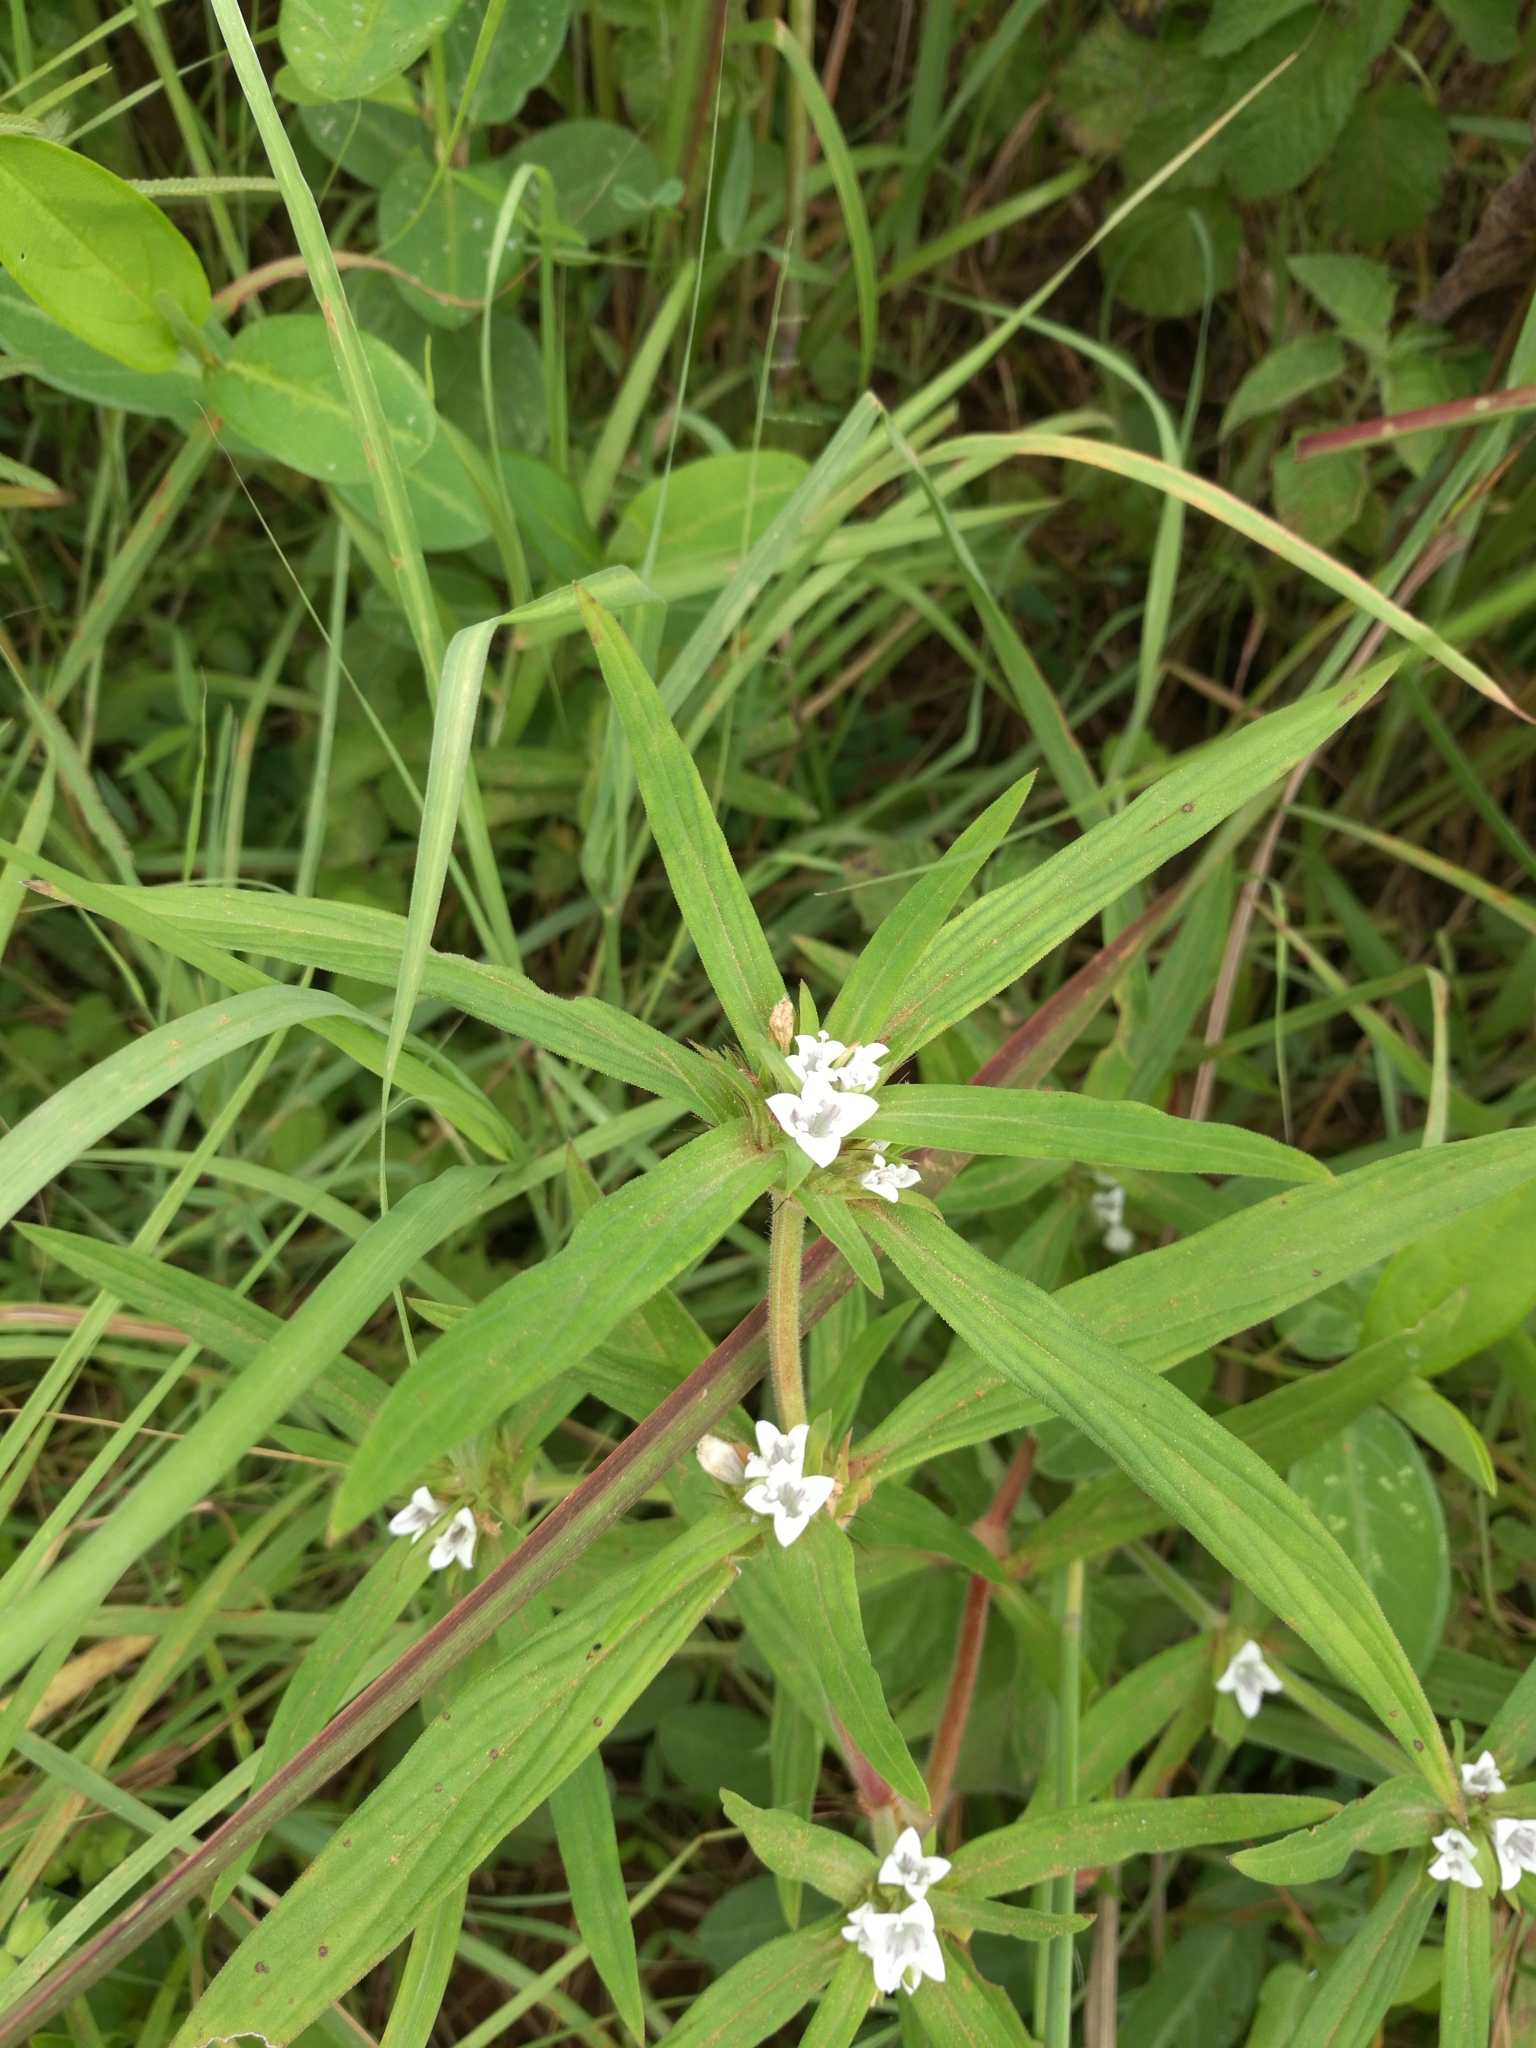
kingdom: Plantae
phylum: Tracheophyta
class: Magnoliopsida
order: Gentianales
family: Rubiaceae
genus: Spermacoce
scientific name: Spermacoce stachydea
